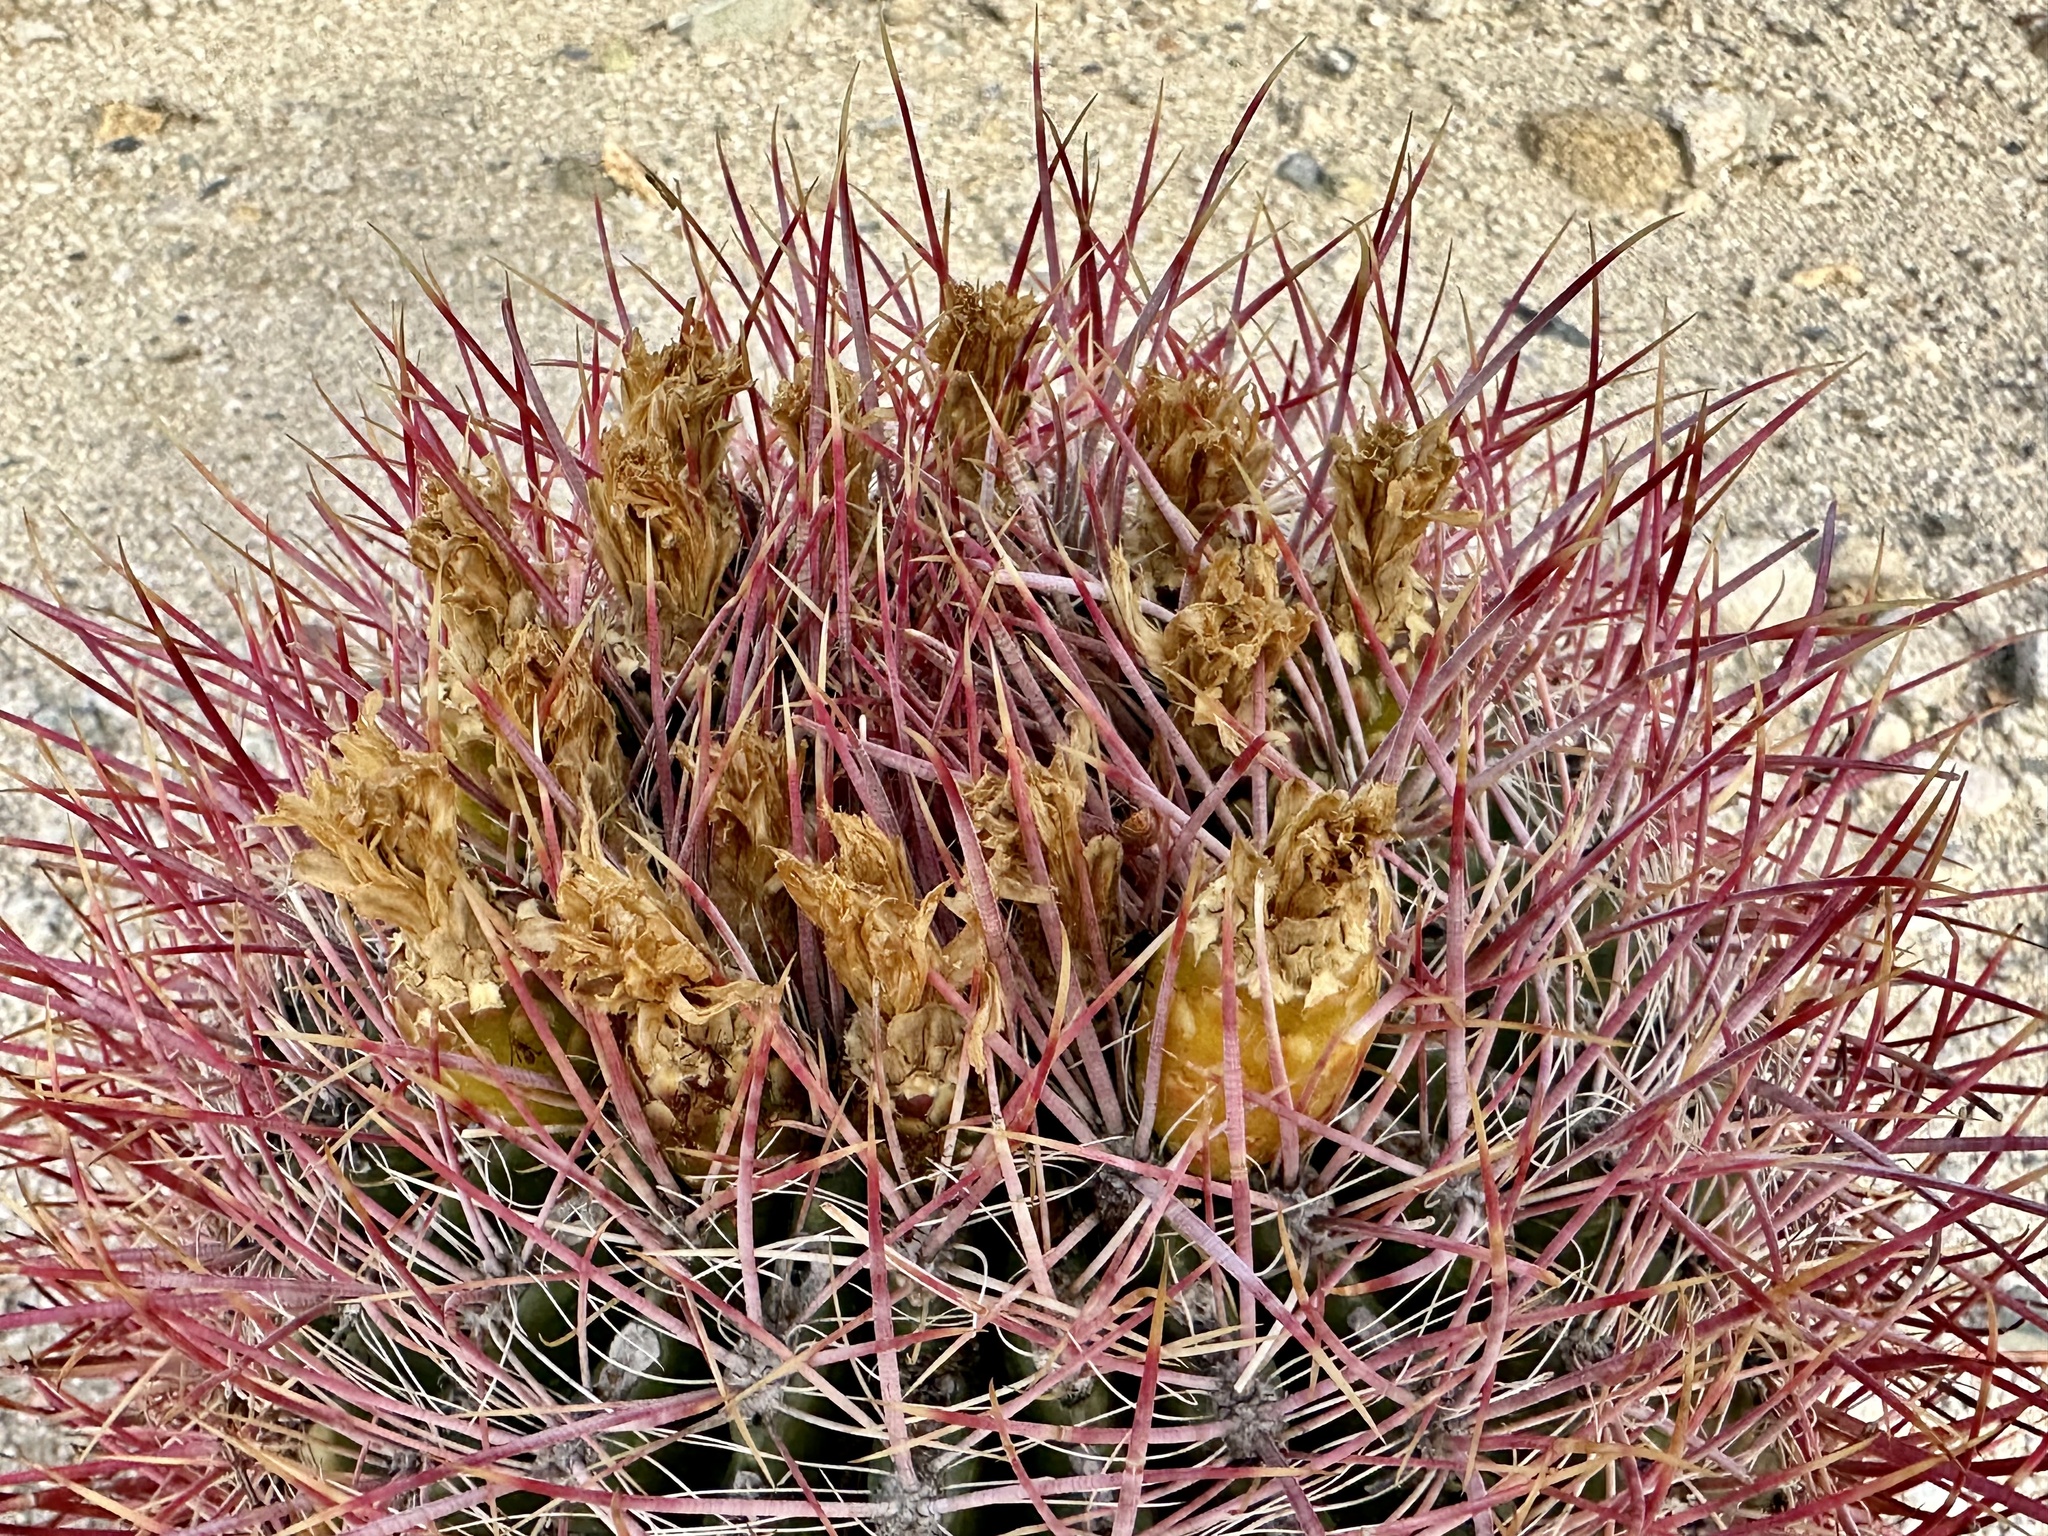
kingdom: Plantae
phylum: Tracheophyta
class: Magnoliopsida
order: Caryophyllales
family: Cactaceae
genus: Ferocactus
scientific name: Ferocactus cylindraceus
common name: California barrel cactus
